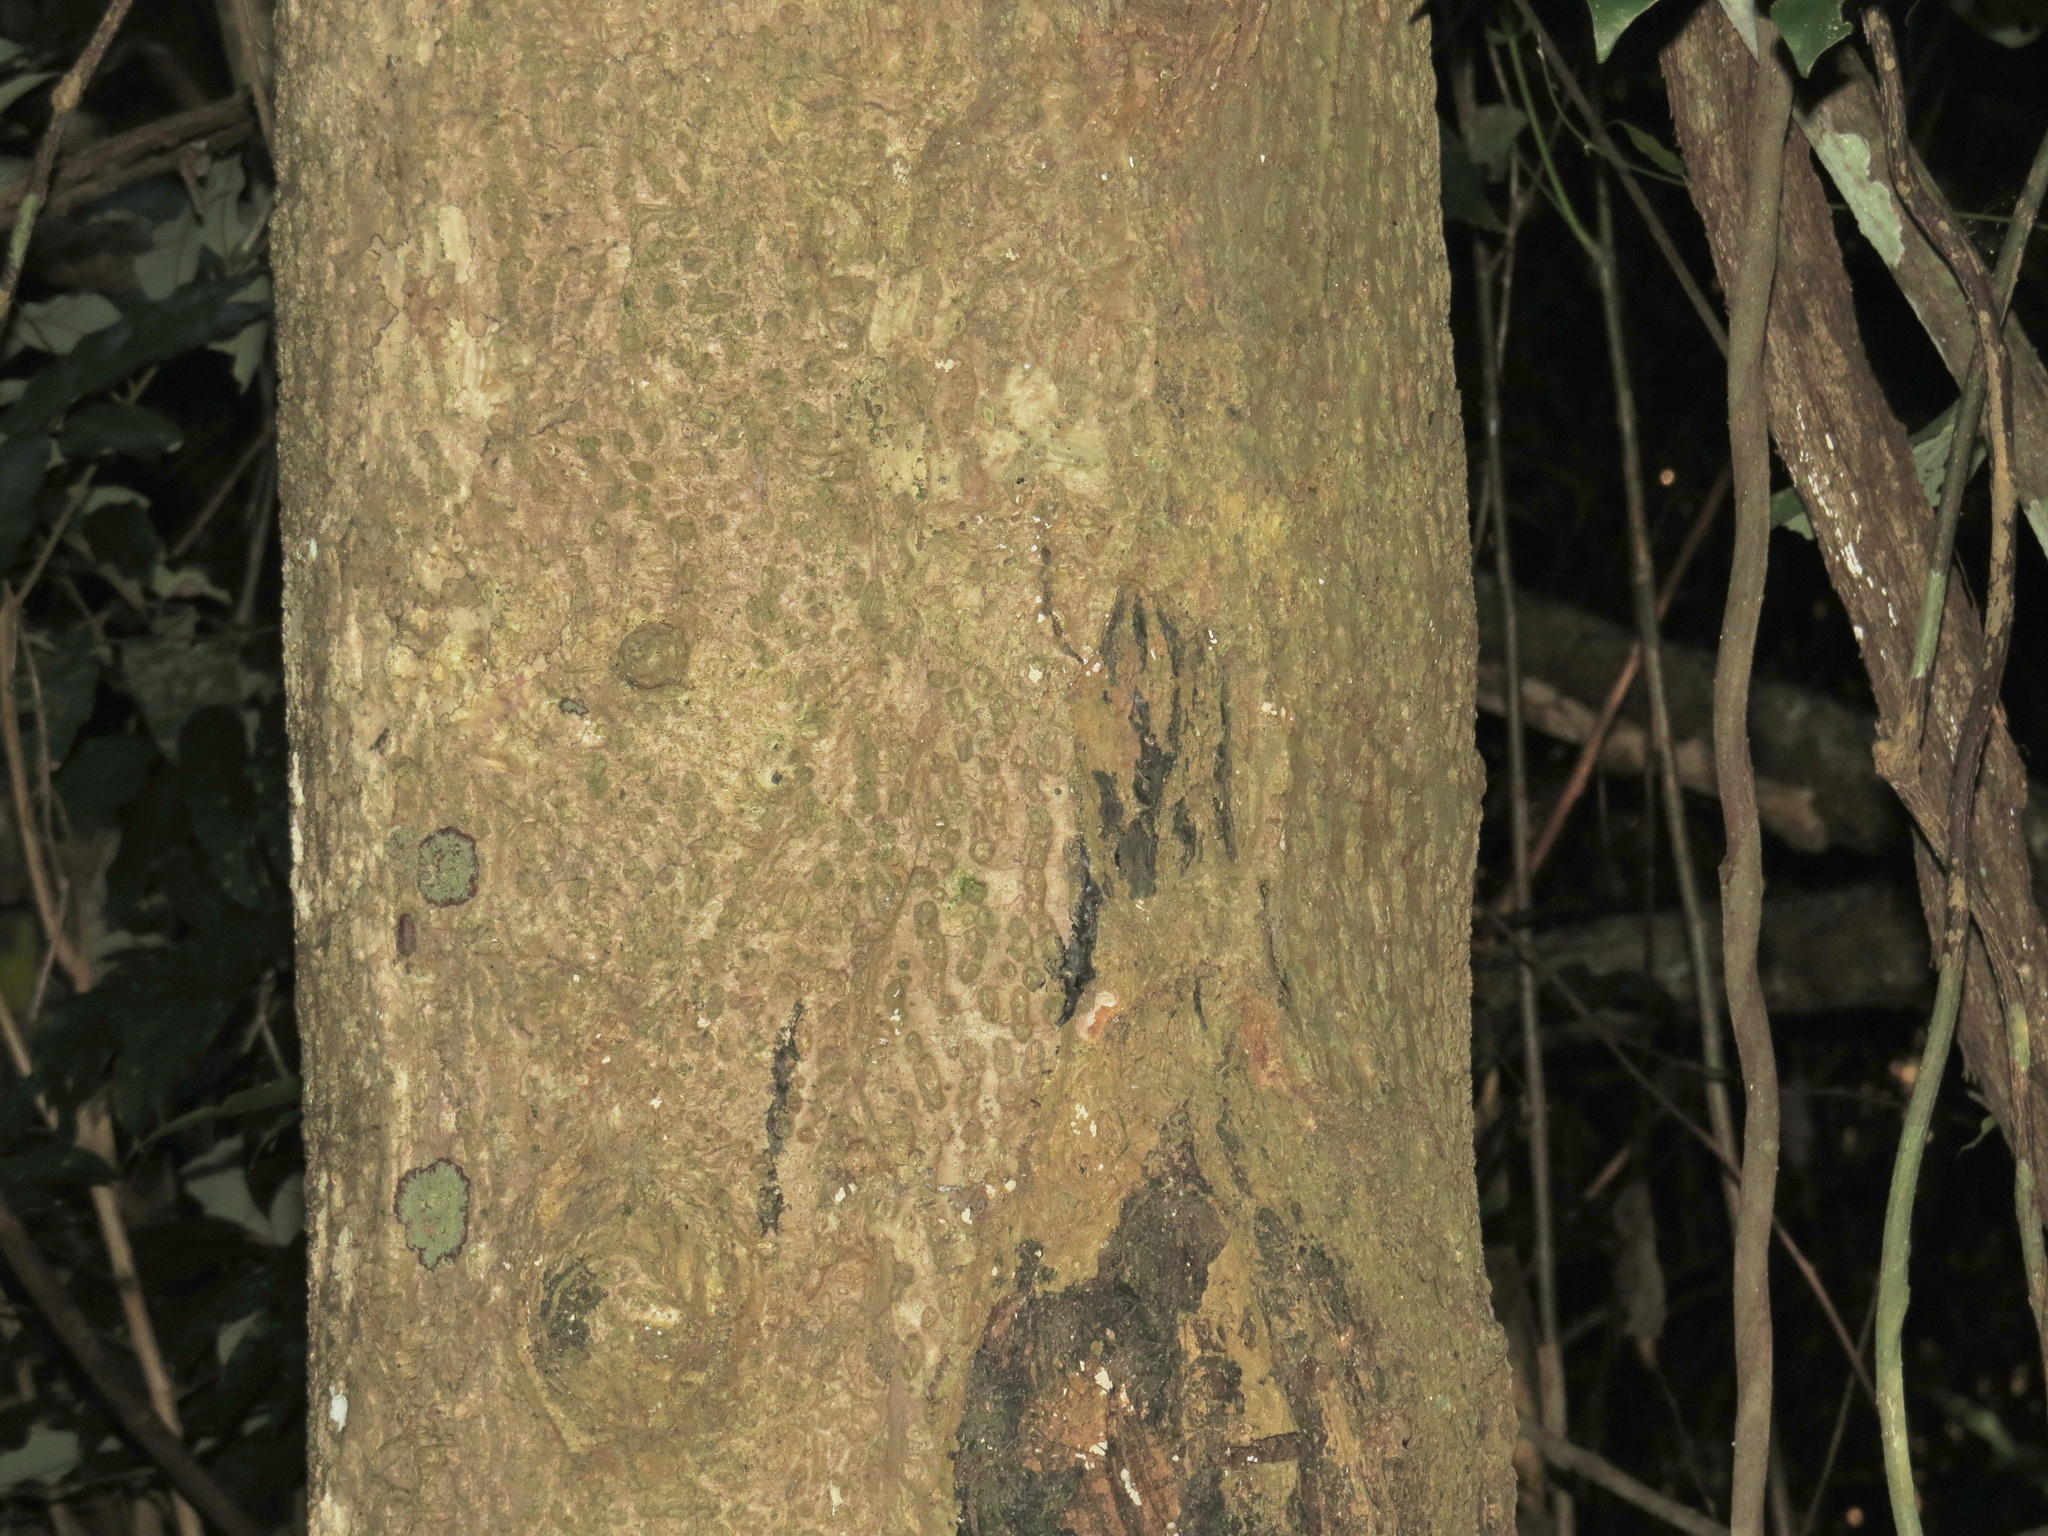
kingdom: Plantae
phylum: Tracheophyta
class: Magnoliopsida
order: Sapindales
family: Anacardiaceae
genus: Semecarpus
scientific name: Semecarpus australiensis
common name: Cedar-plum
